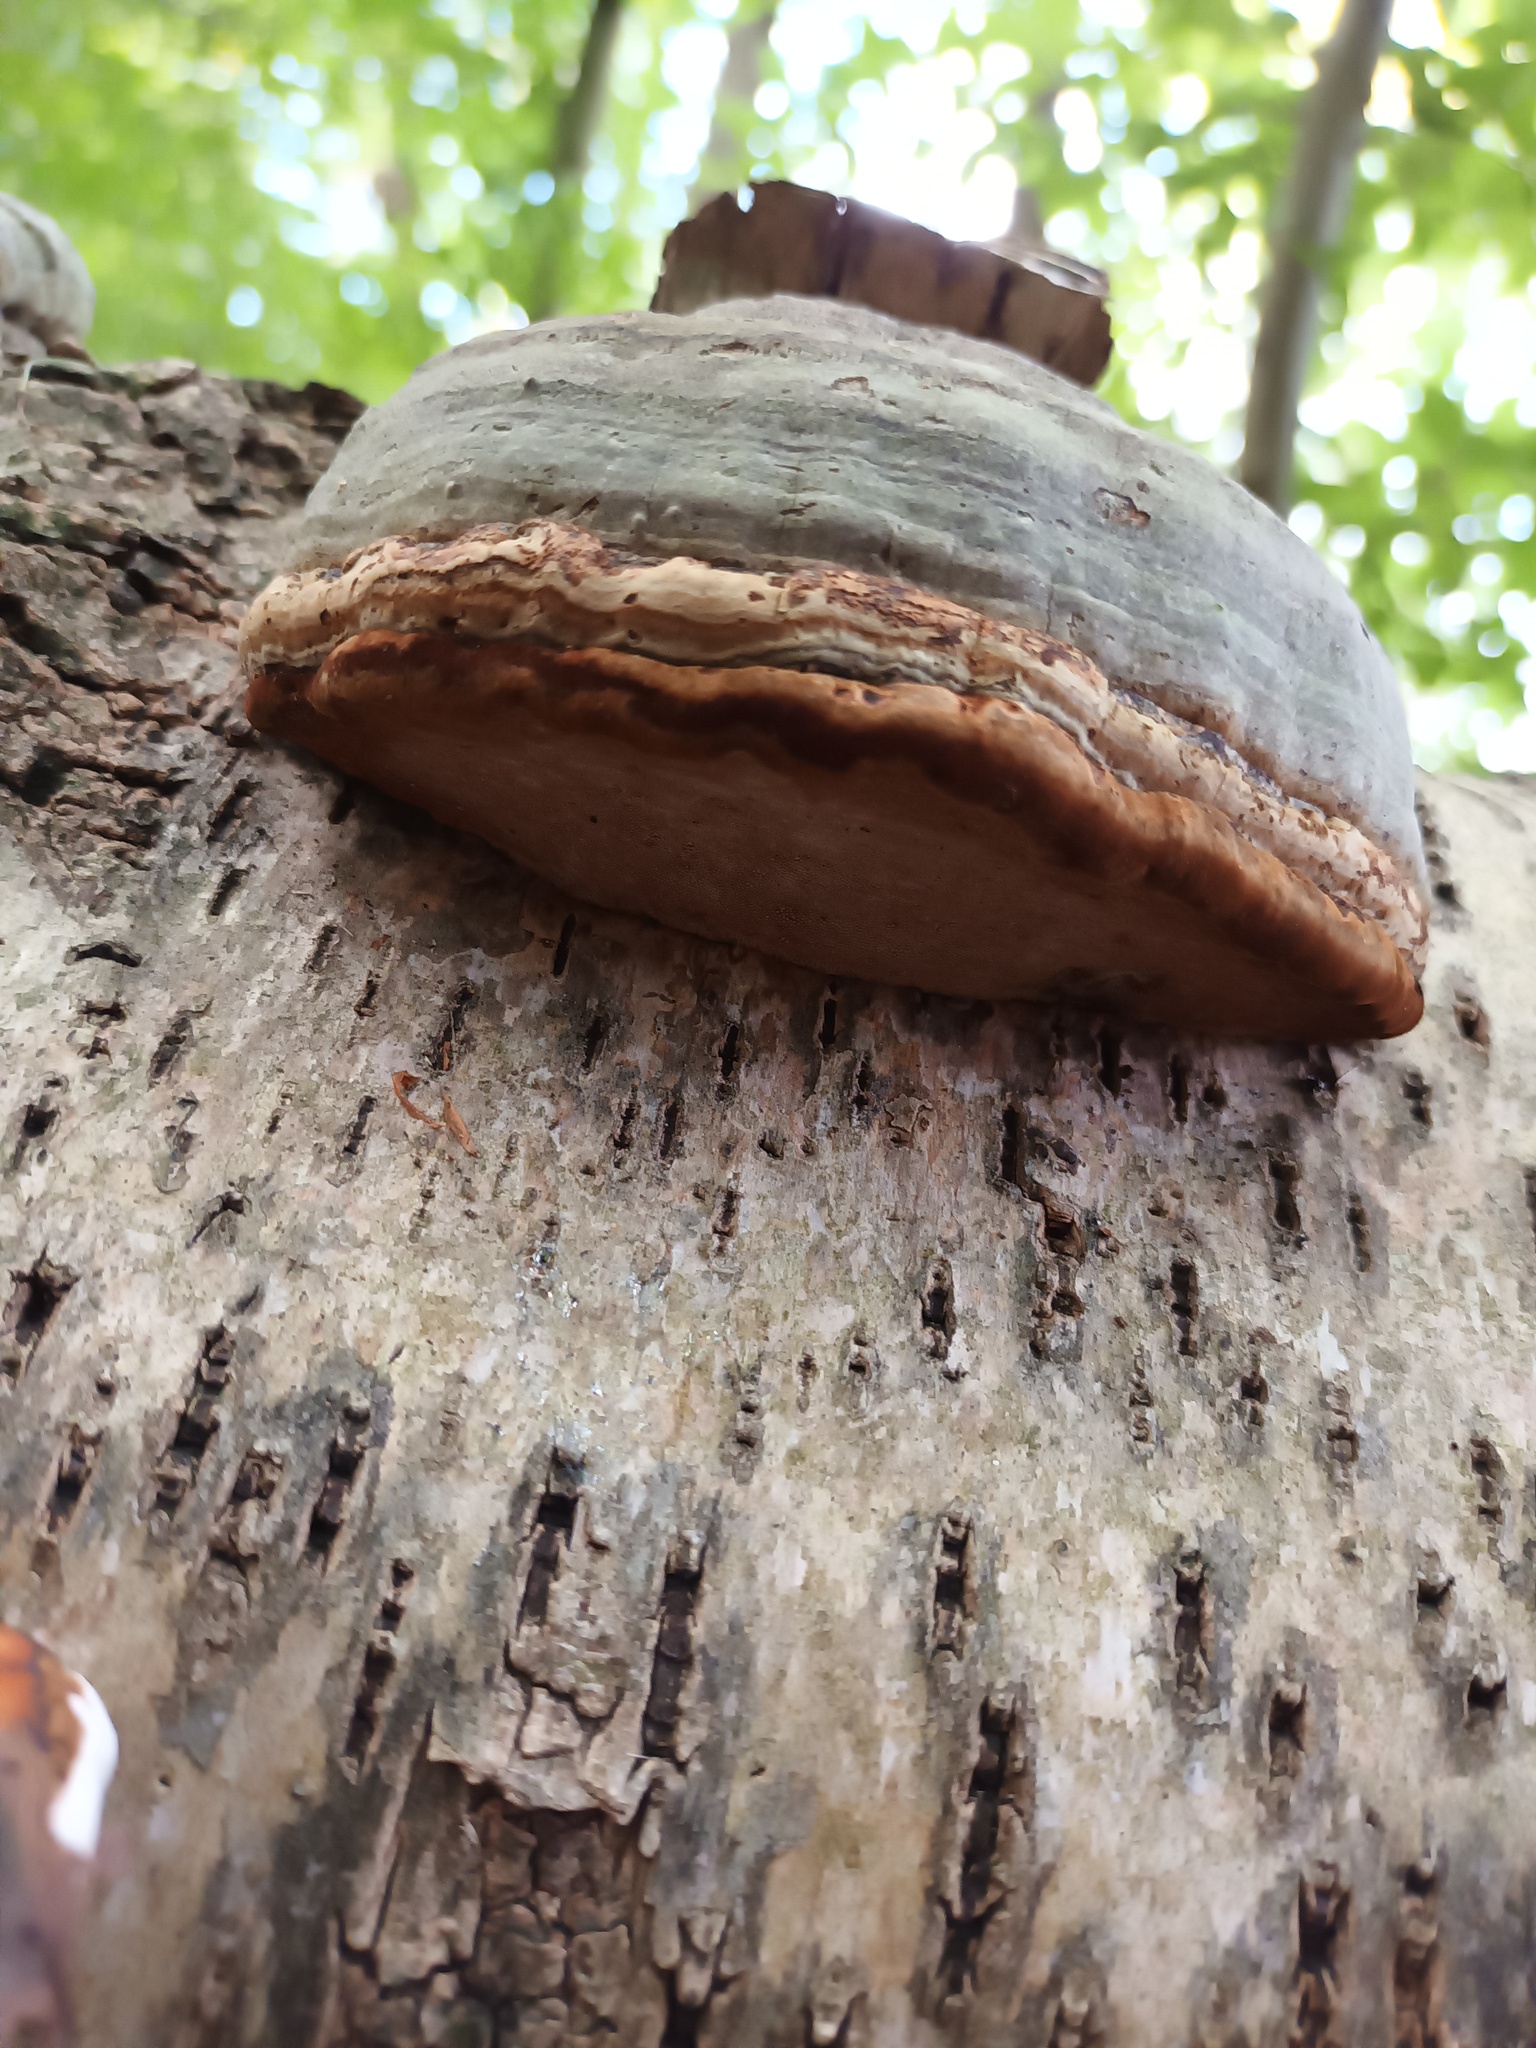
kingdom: Fungi
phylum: Basidiomycota
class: Agaricomycetes
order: Polyporales
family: Polyporaceae
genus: Fomes
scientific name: Fomes fomentarius
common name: Hoof fungus
